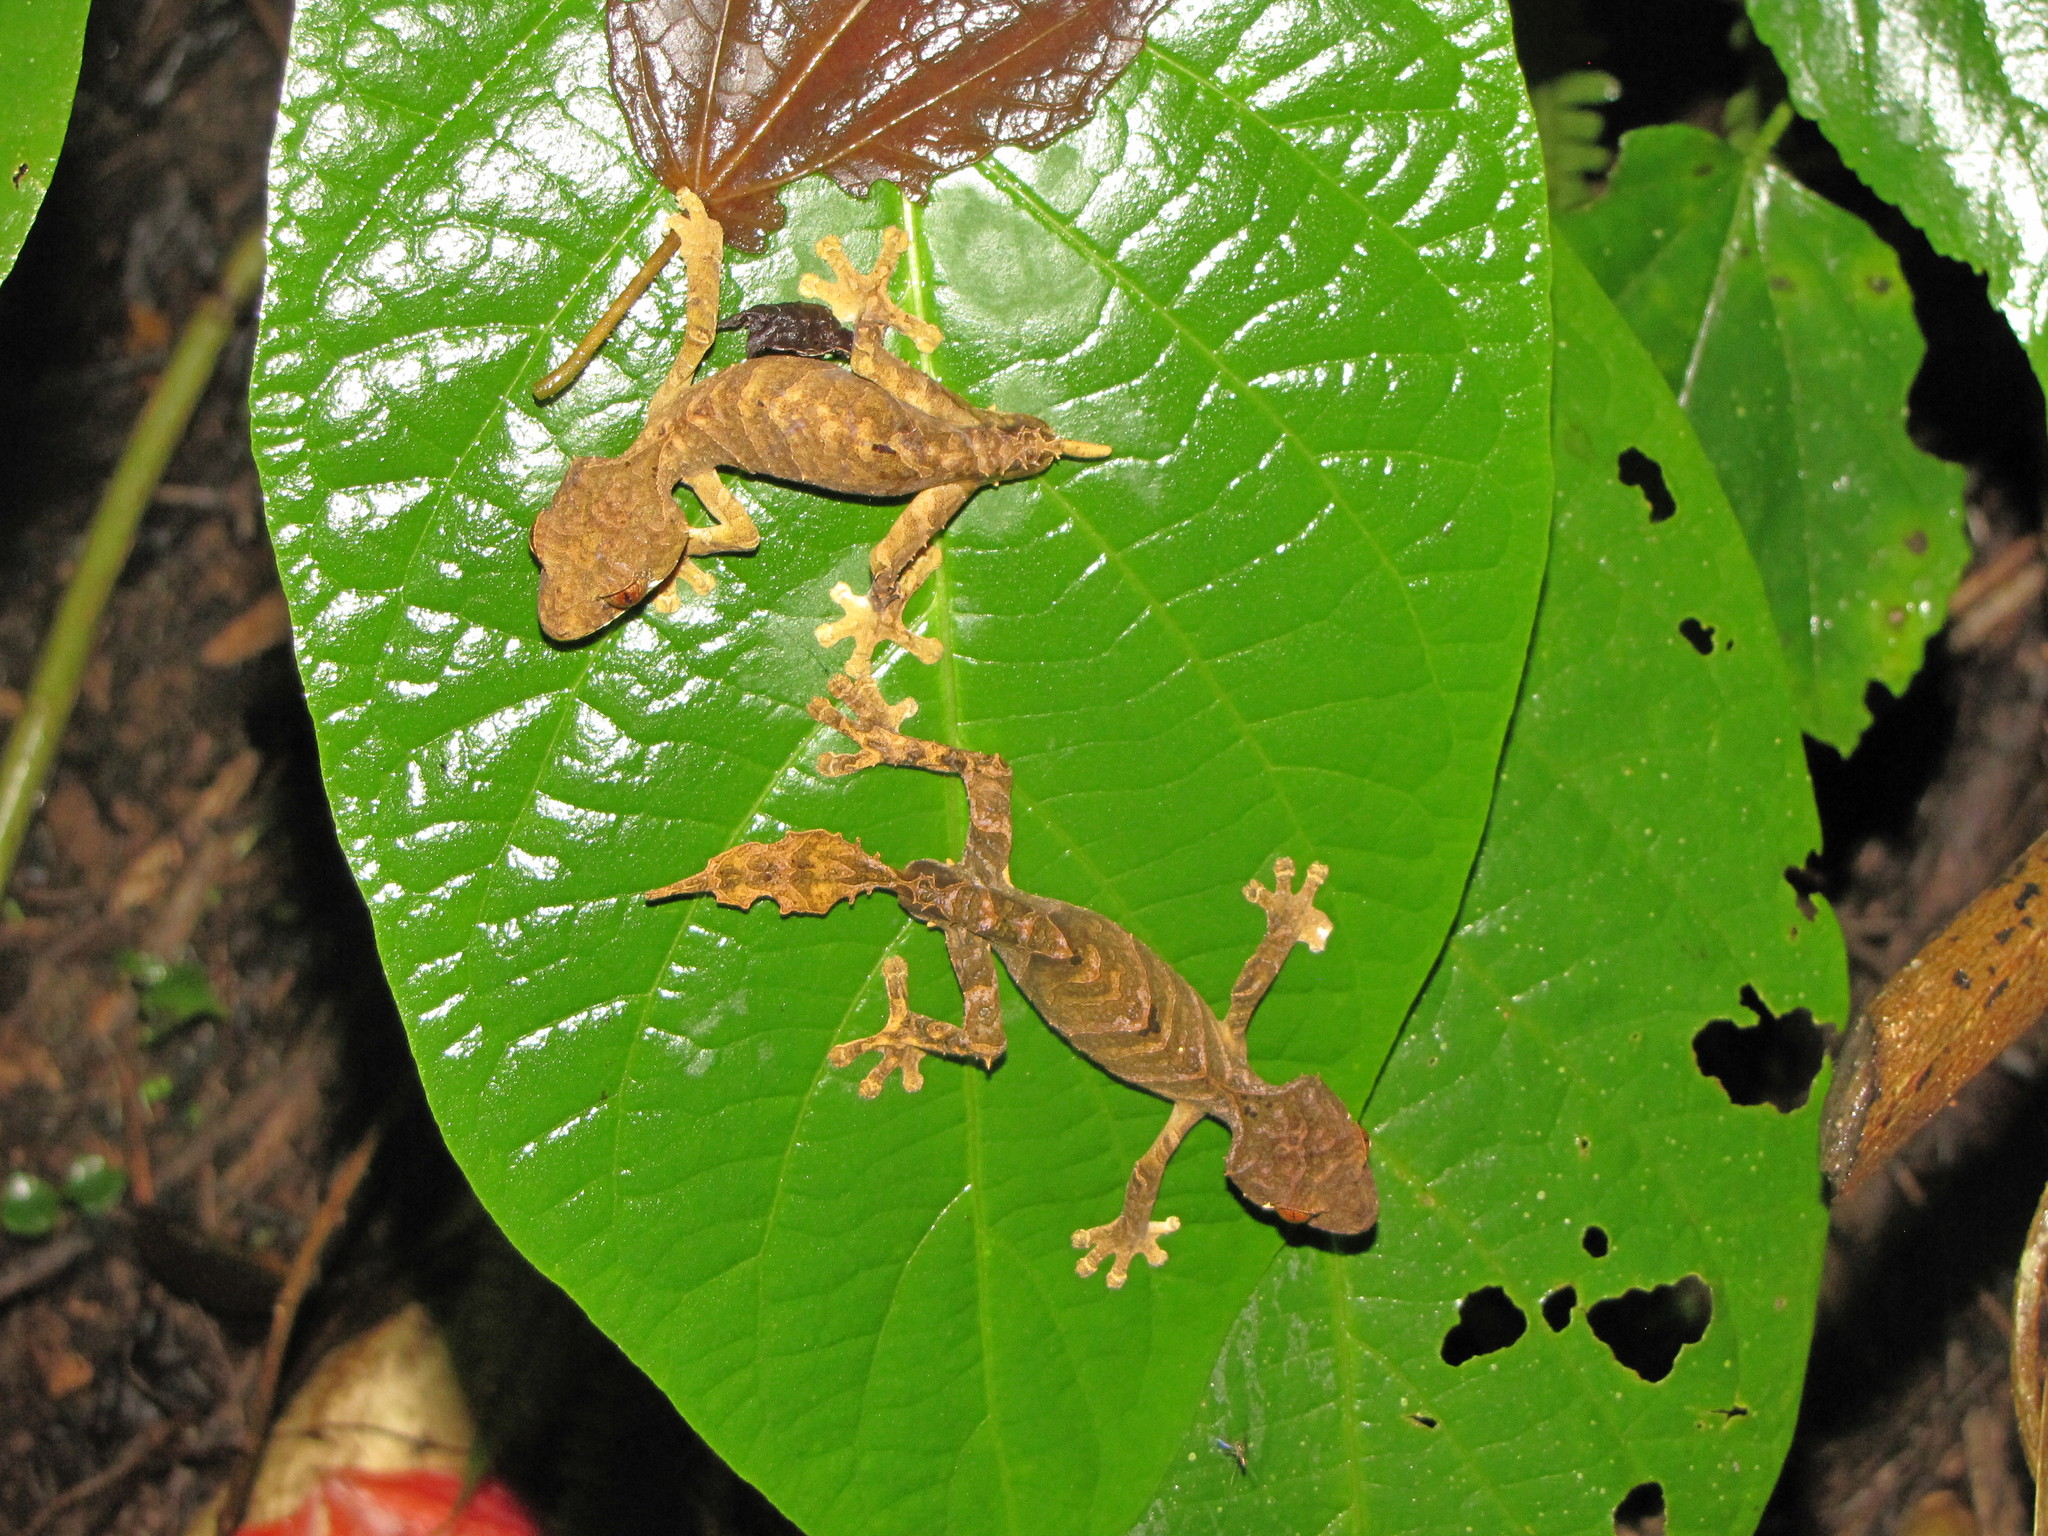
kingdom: Animalia
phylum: Chordata
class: Squamata
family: Gekkonidae
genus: Uroplatus
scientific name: Uroplatus finiavana
